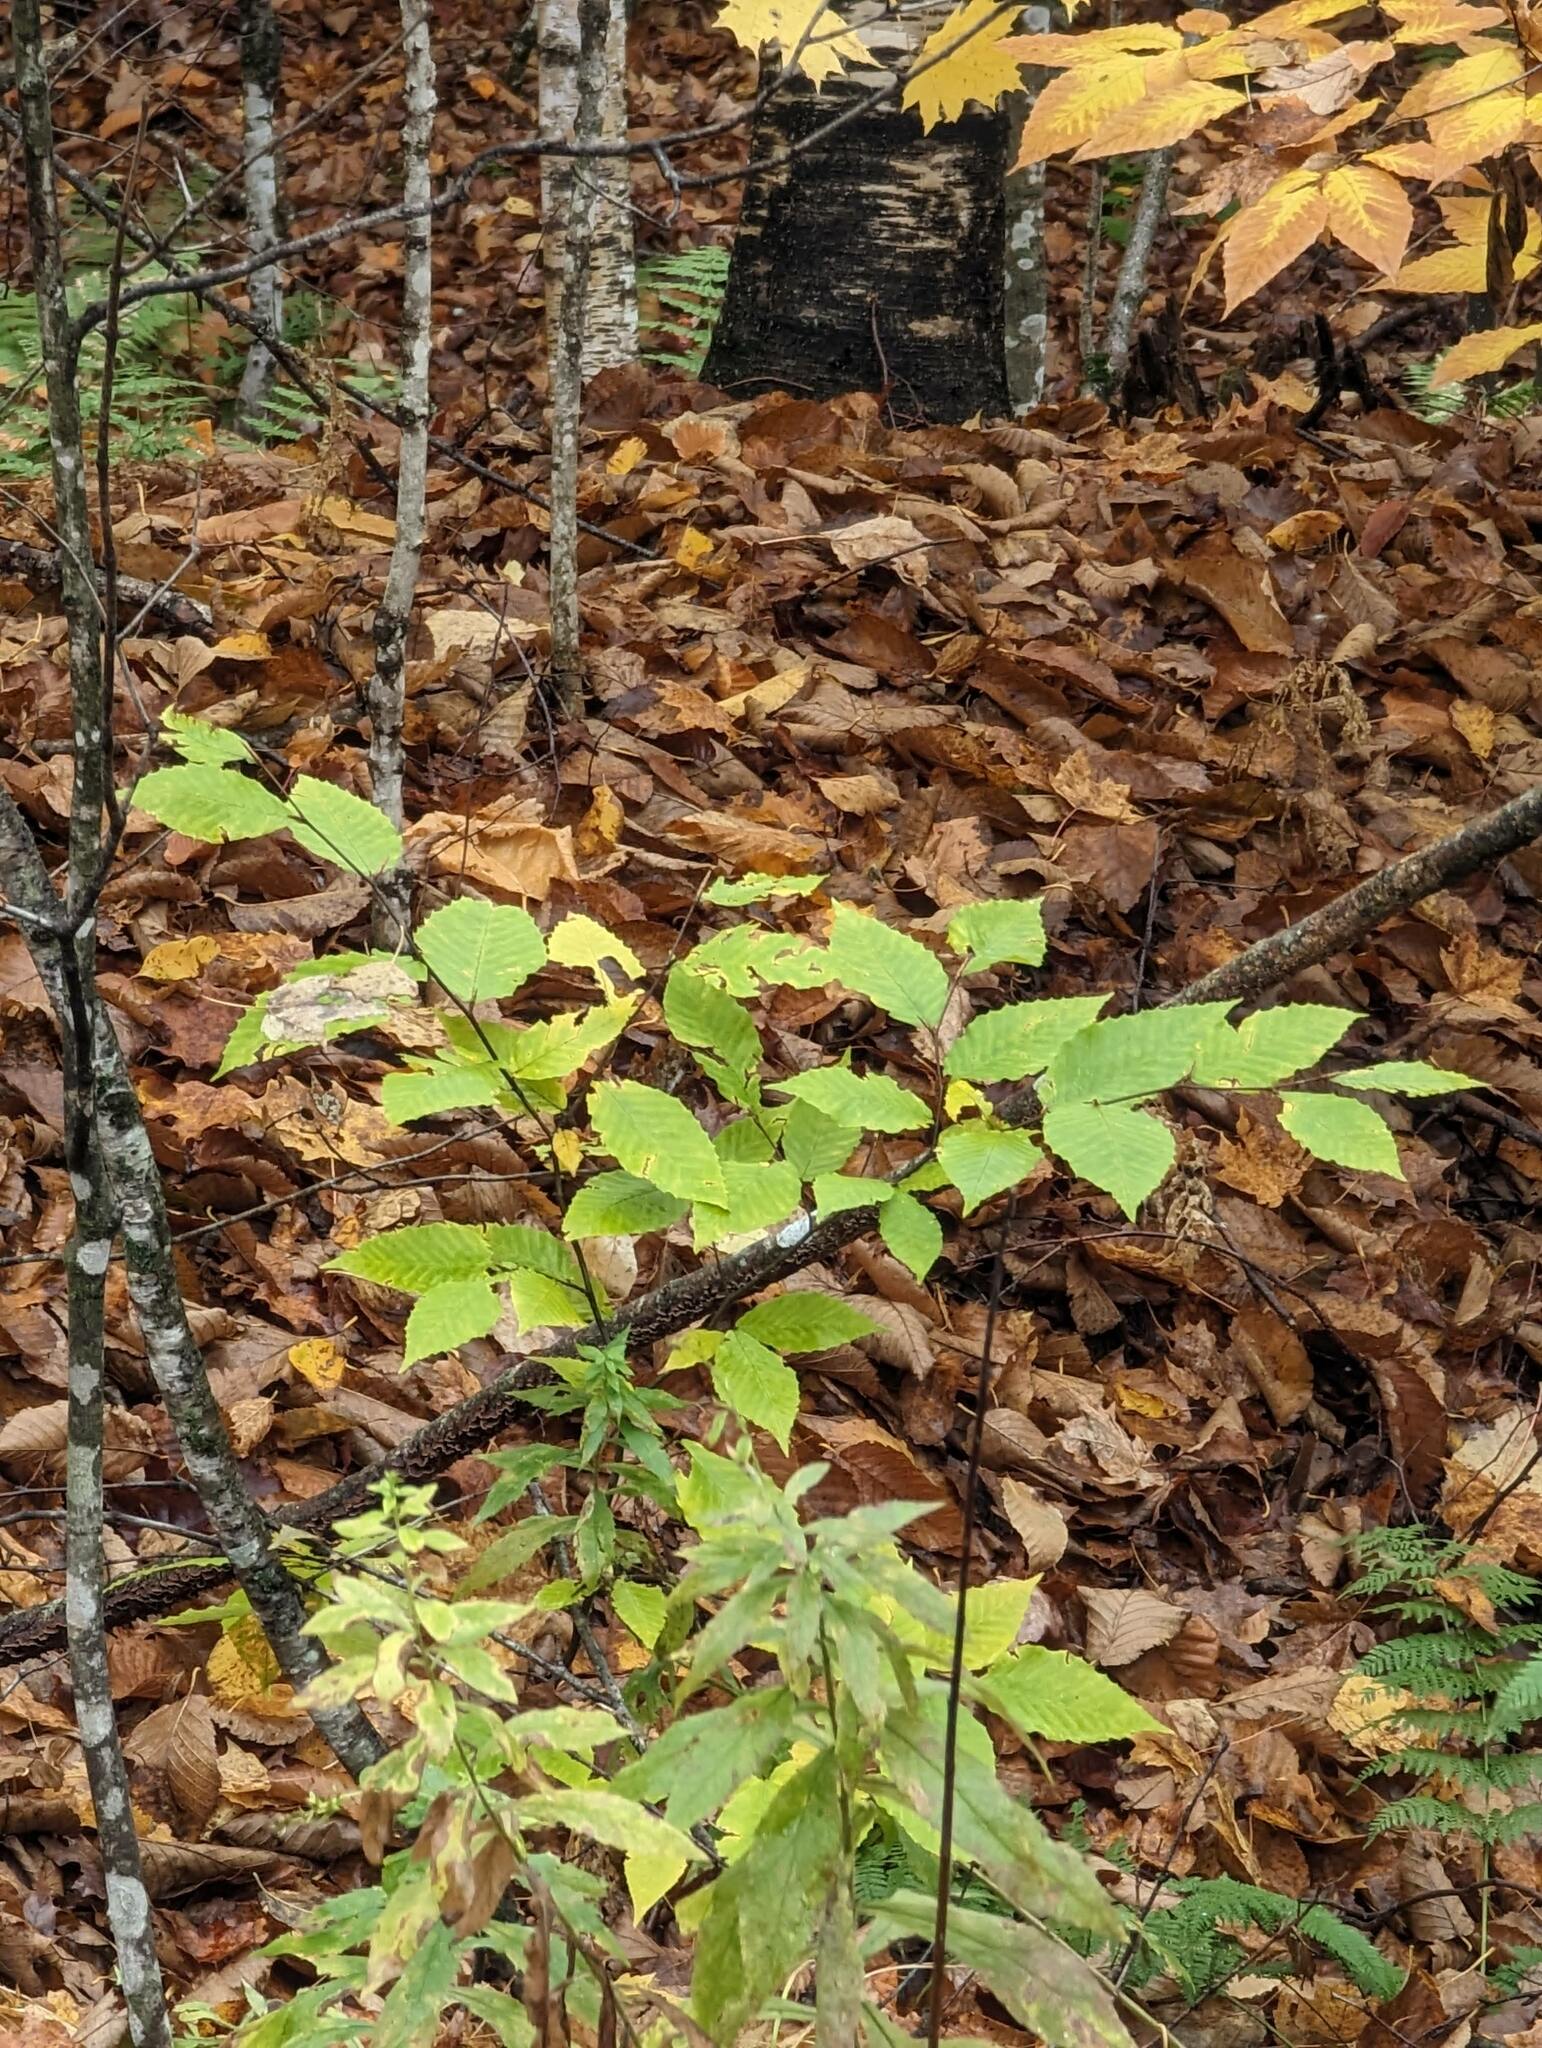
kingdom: Plantae
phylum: Tracheophyta
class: Magnoliopsida
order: Fagales
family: Fagaceae
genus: Fagus
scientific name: Fagus grandifolia
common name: American beech
